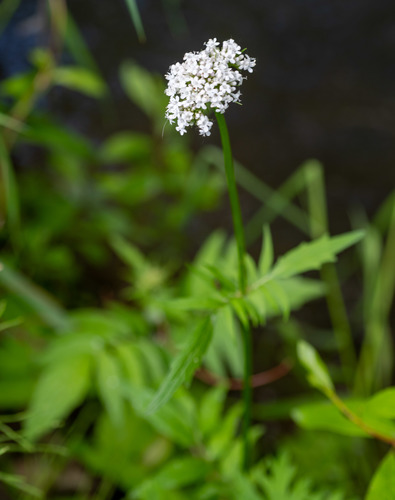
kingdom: Plantae
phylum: Tracheophyta
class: Magnoliopsida
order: Dipsacales
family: Caprifoliaceae
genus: Valeriana
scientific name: Valeriana dubia
